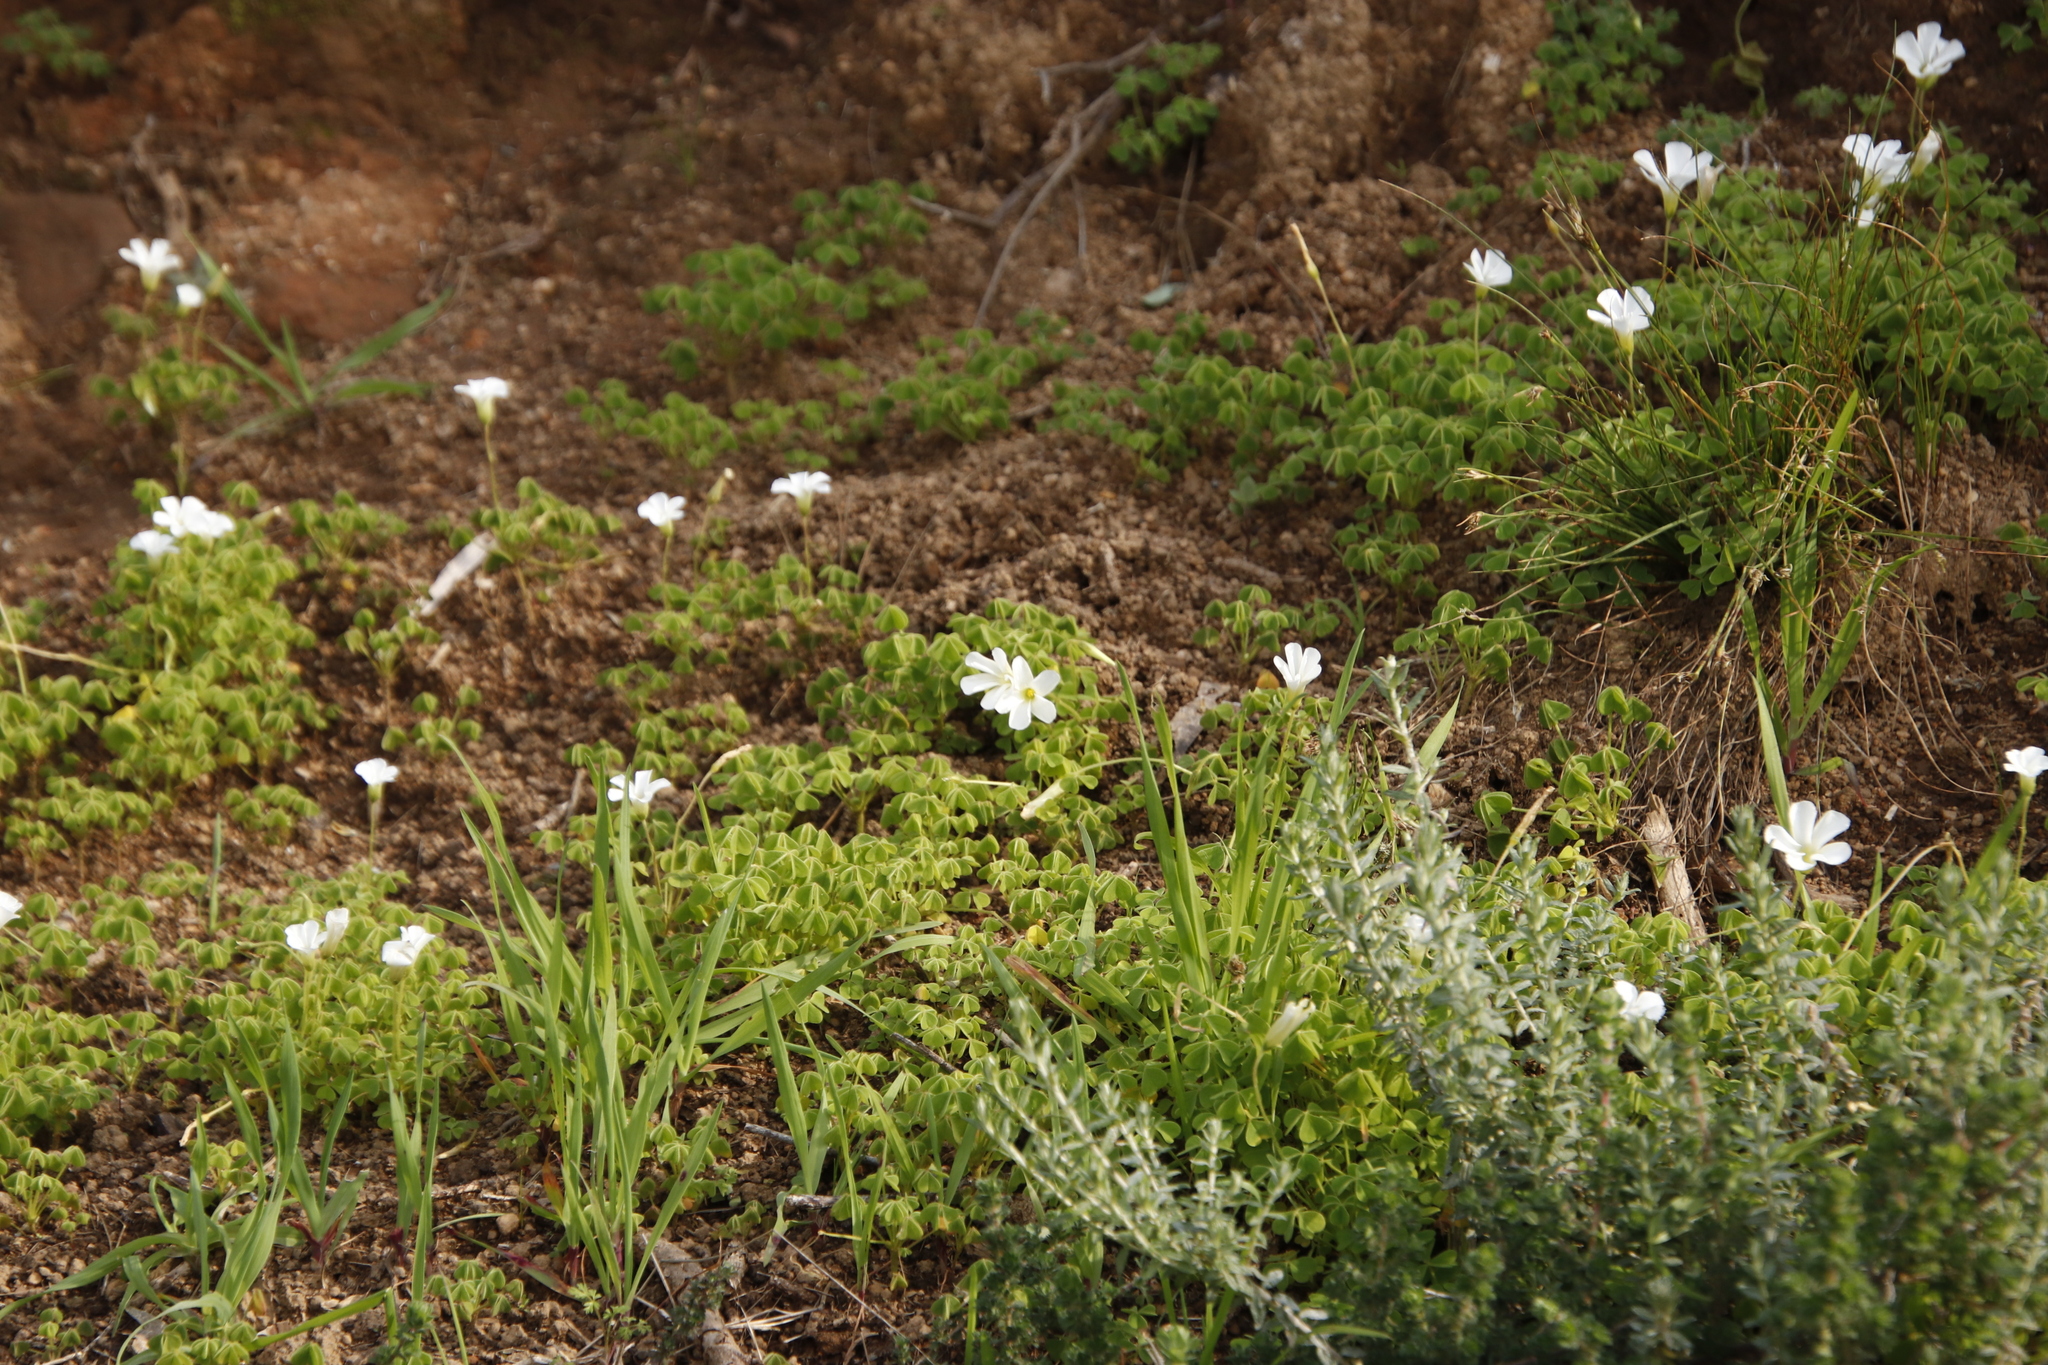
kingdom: Plantae
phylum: Tracheophyta
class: Magnoliopsida
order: Oxalidales
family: Oxalidaceae
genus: Oxalis
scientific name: Oxalis lanata
